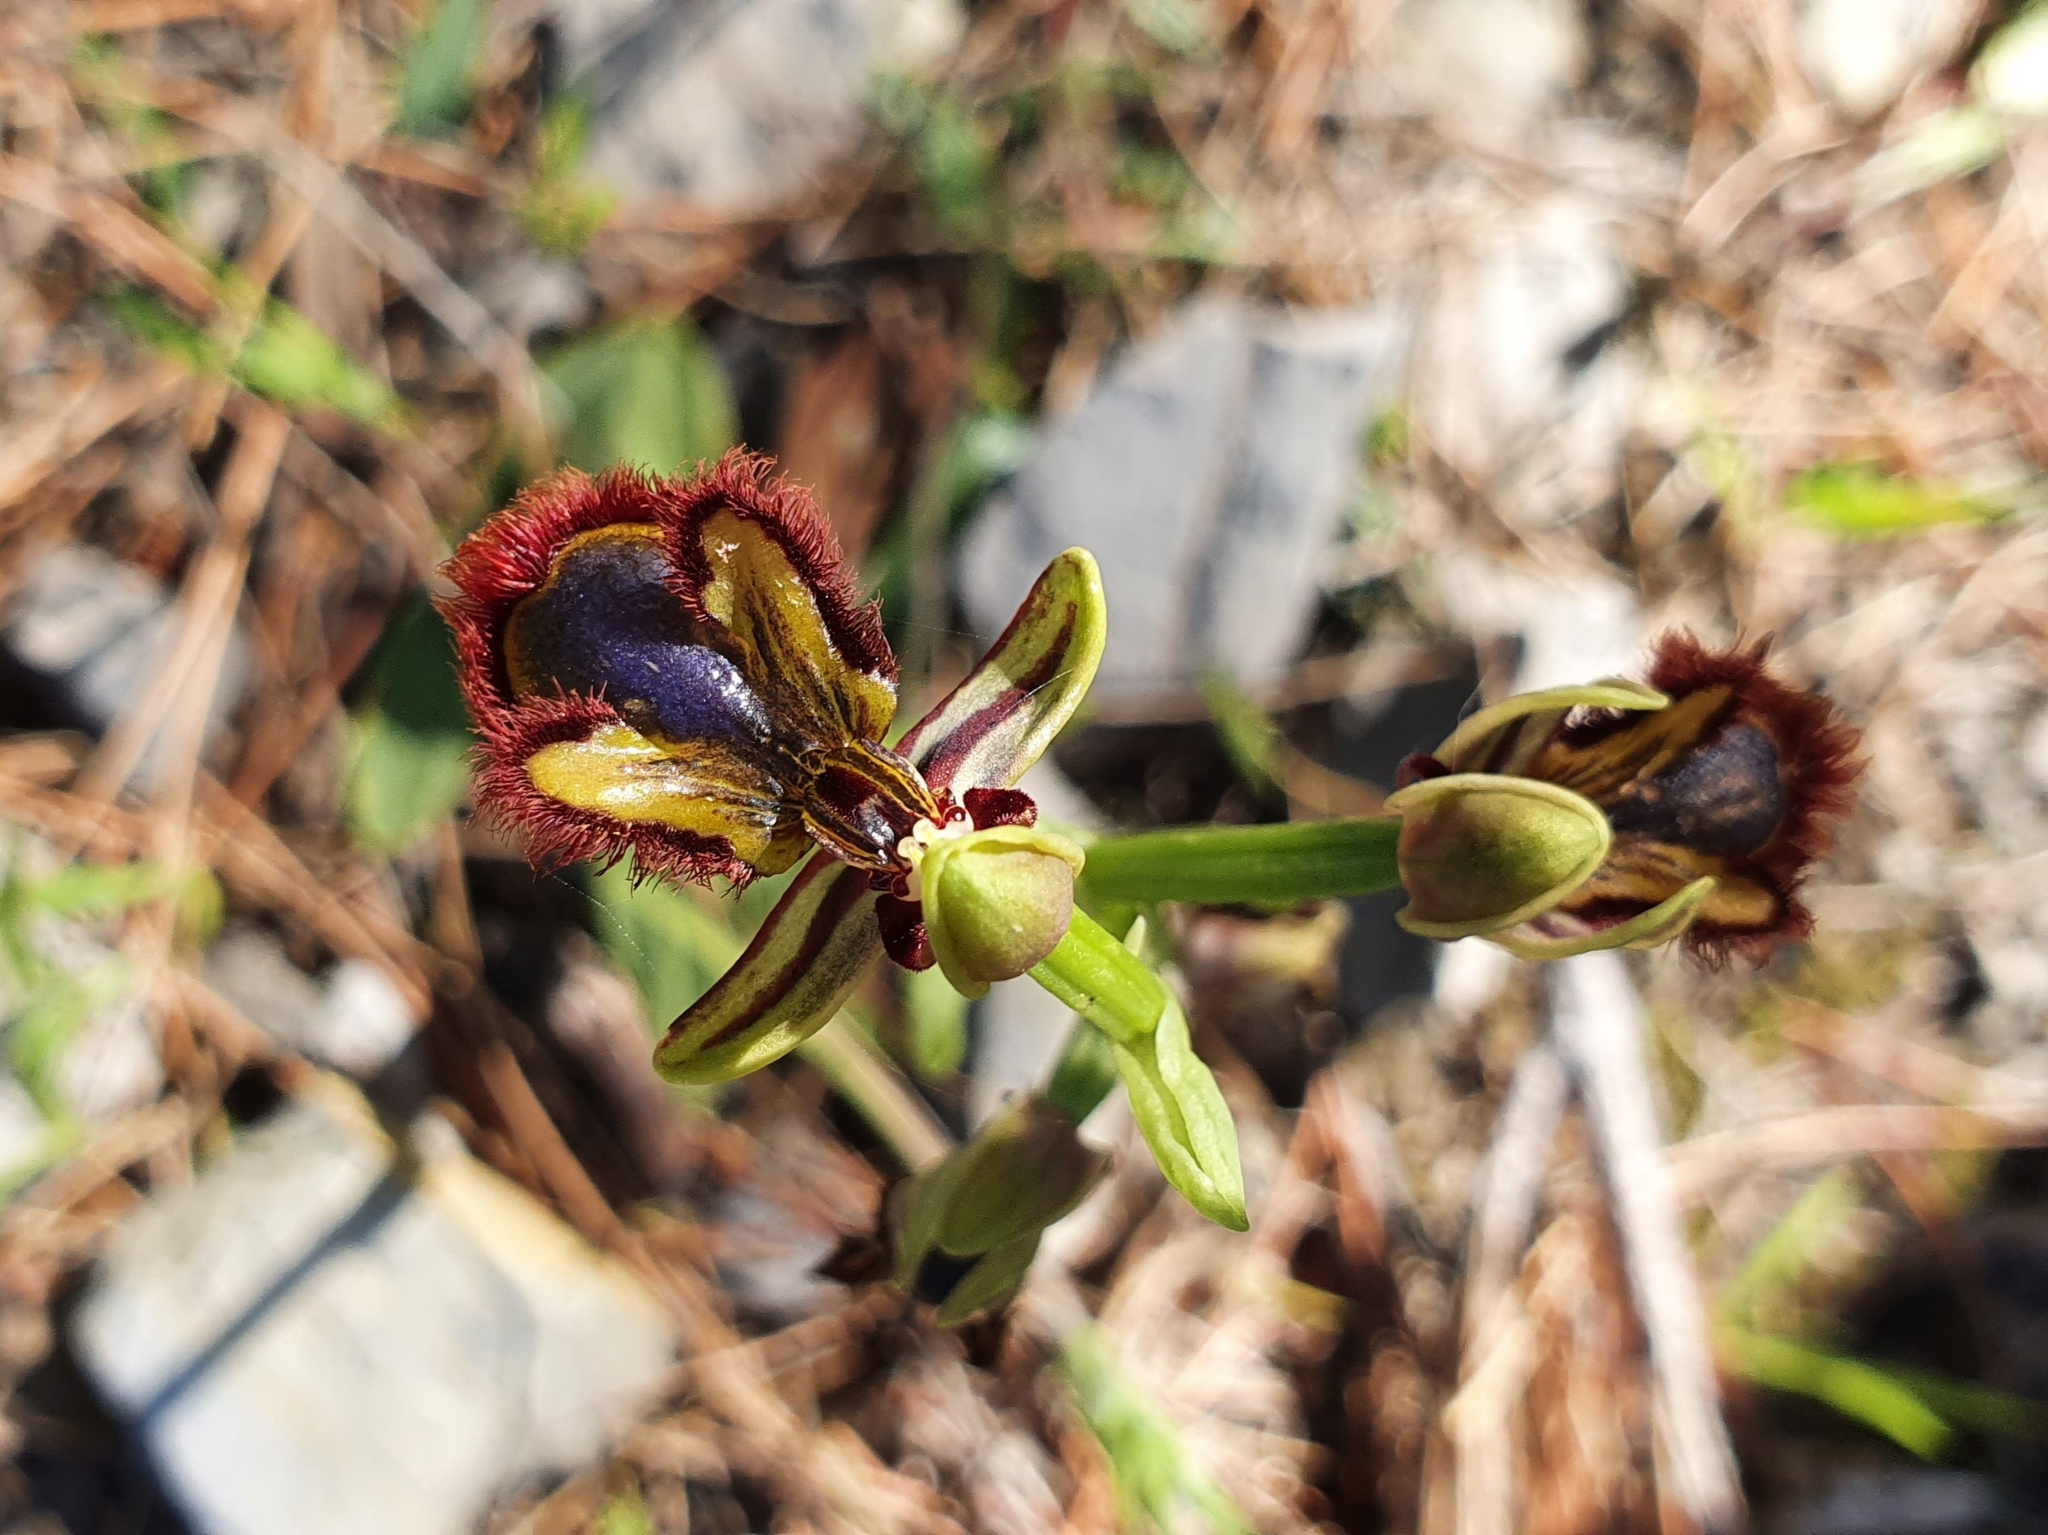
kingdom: Plantae
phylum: Tracheophyta
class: Liliopsida
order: Asparagales
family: Orchidaceae
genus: Ophrys
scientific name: Ophrys speculum
